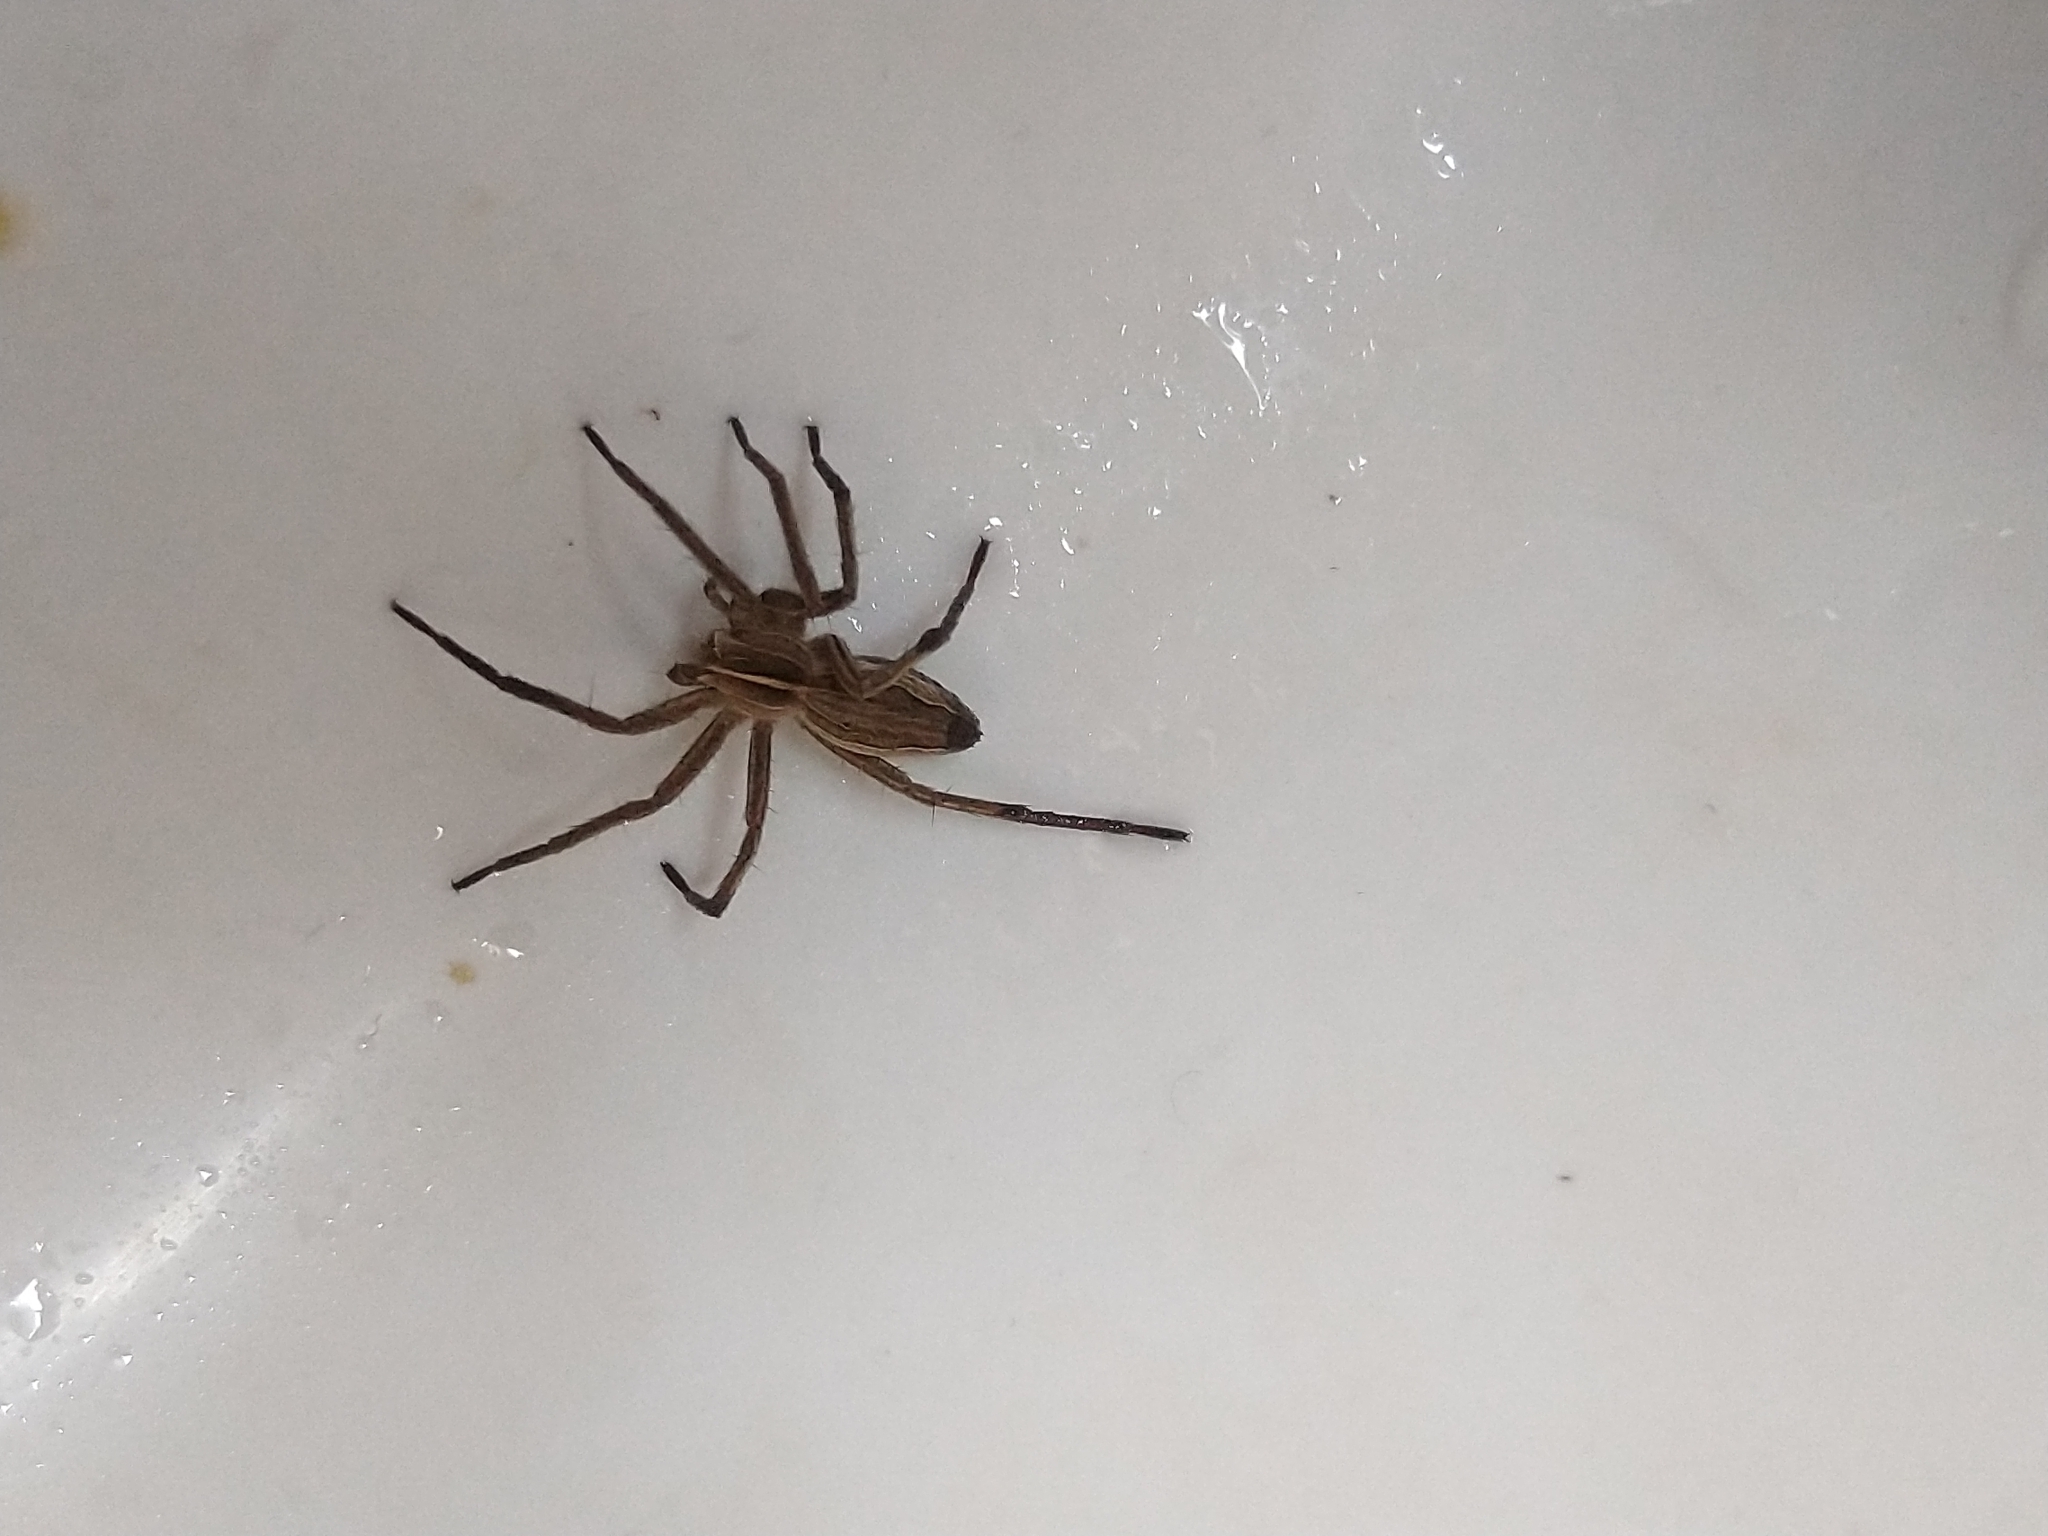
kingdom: Animalia
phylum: Arthropoda
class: Arachnida
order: Araneae
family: Pisauridae
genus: Pisaura
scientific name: Pisaura mirabilis
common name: Tent spider
